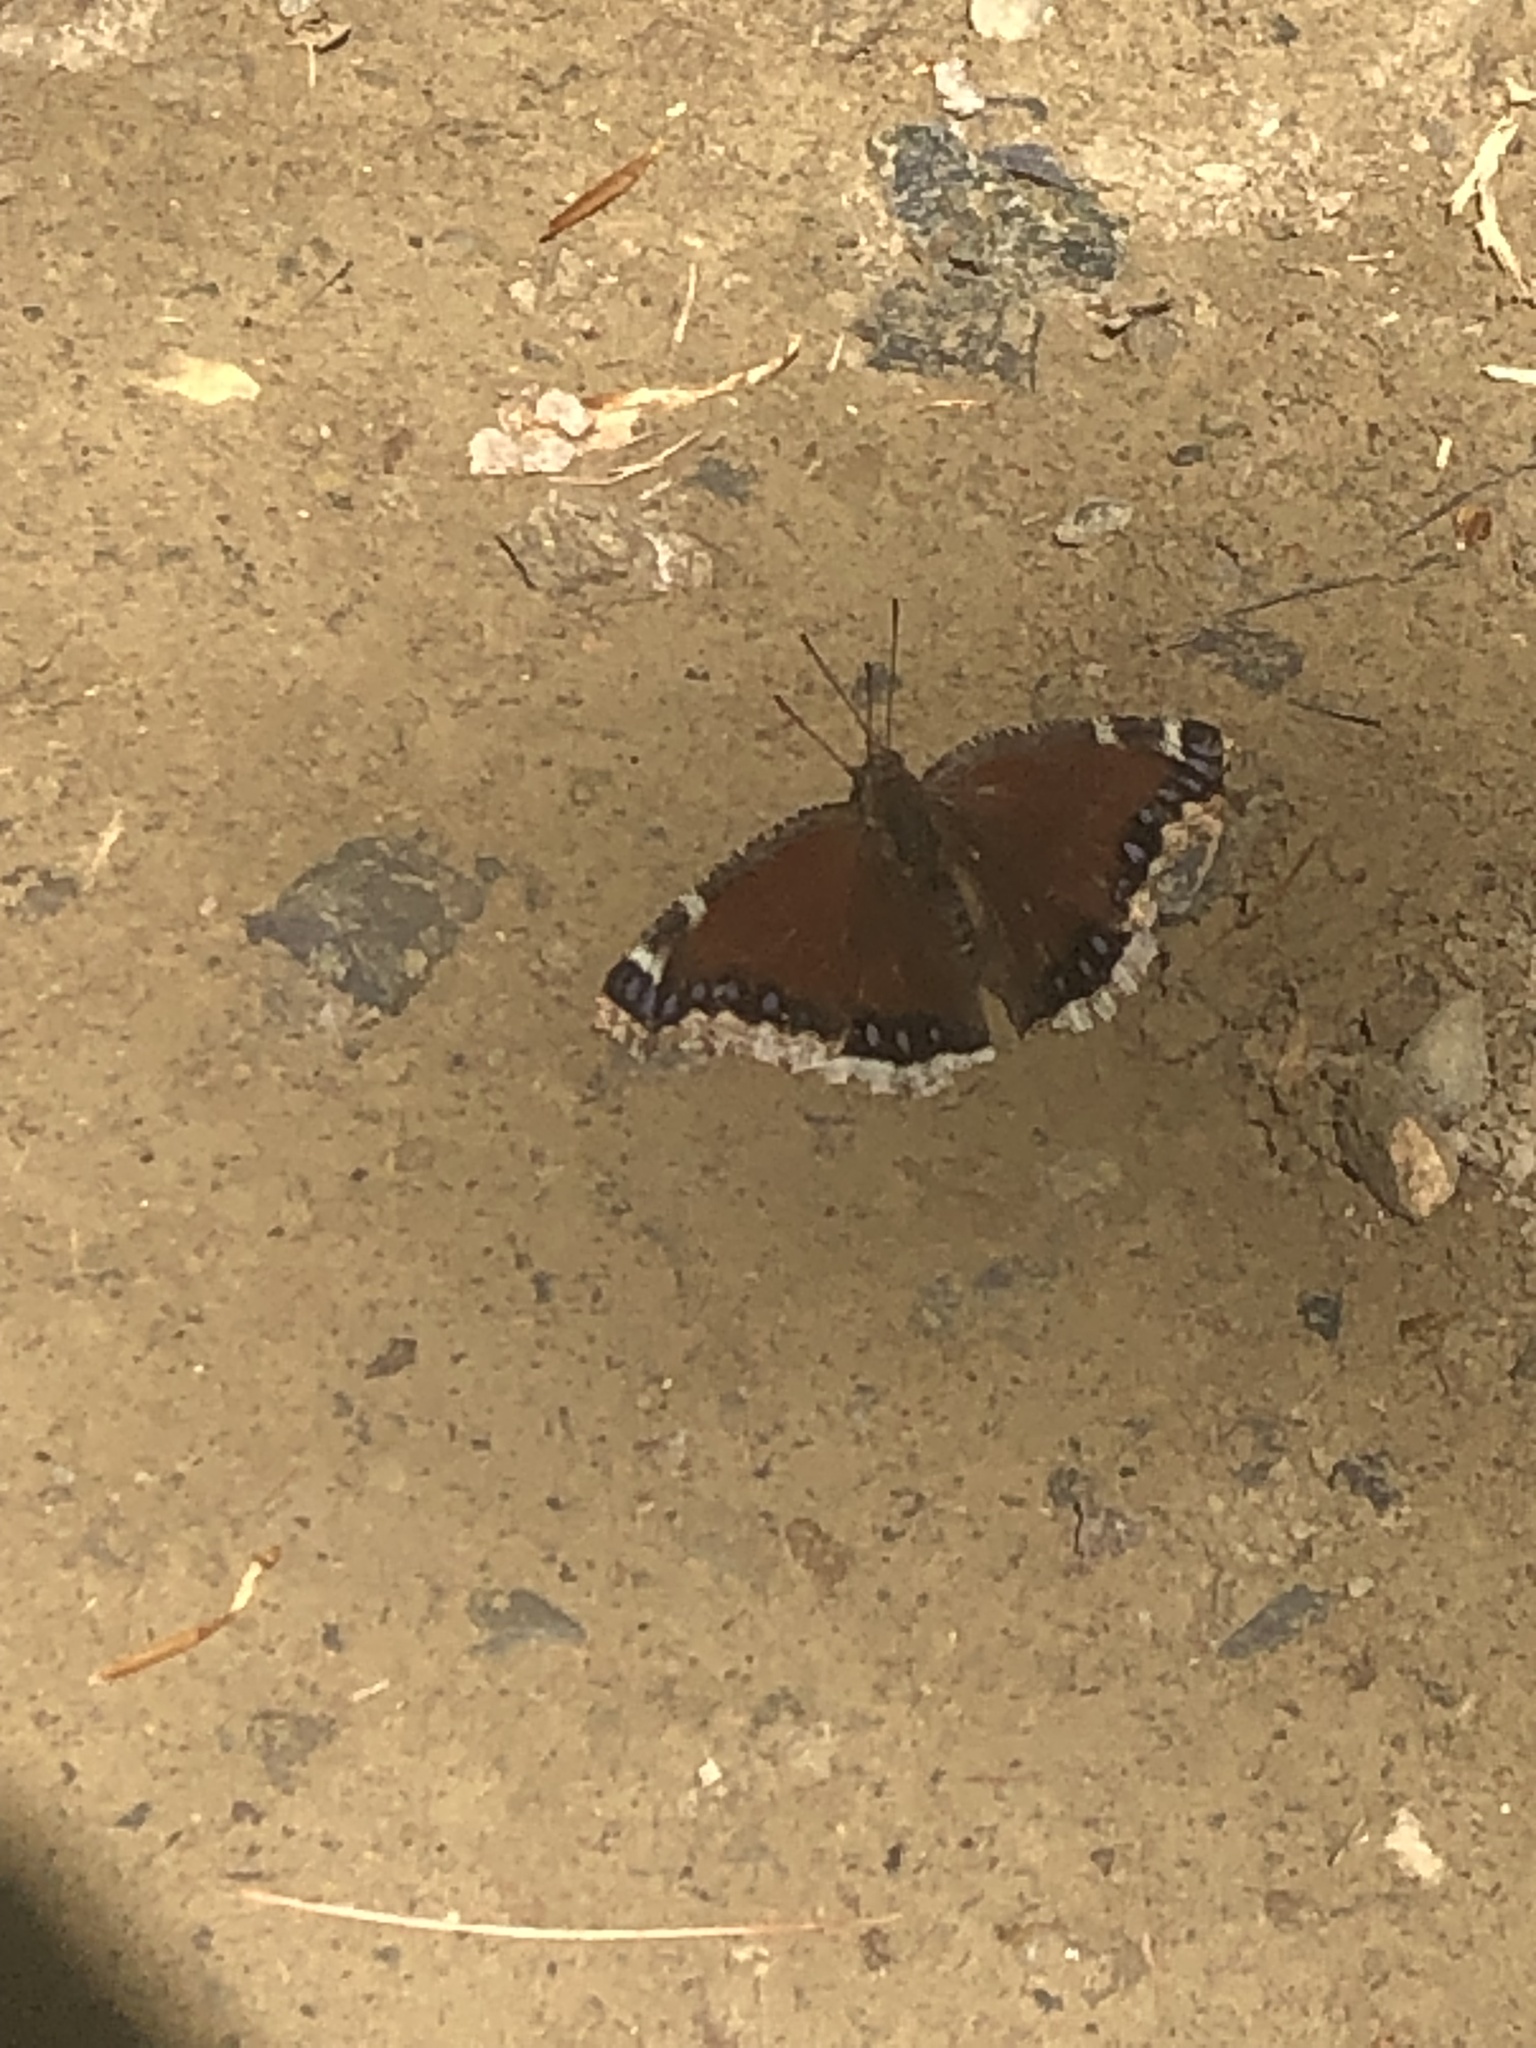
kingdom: Animalia
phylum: Arthropoda
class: Insecta
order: Lepidoptera
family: Nymphalidae
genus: Nymphalis
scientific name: Nymphalis antiopa
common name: Camberwell beauty
